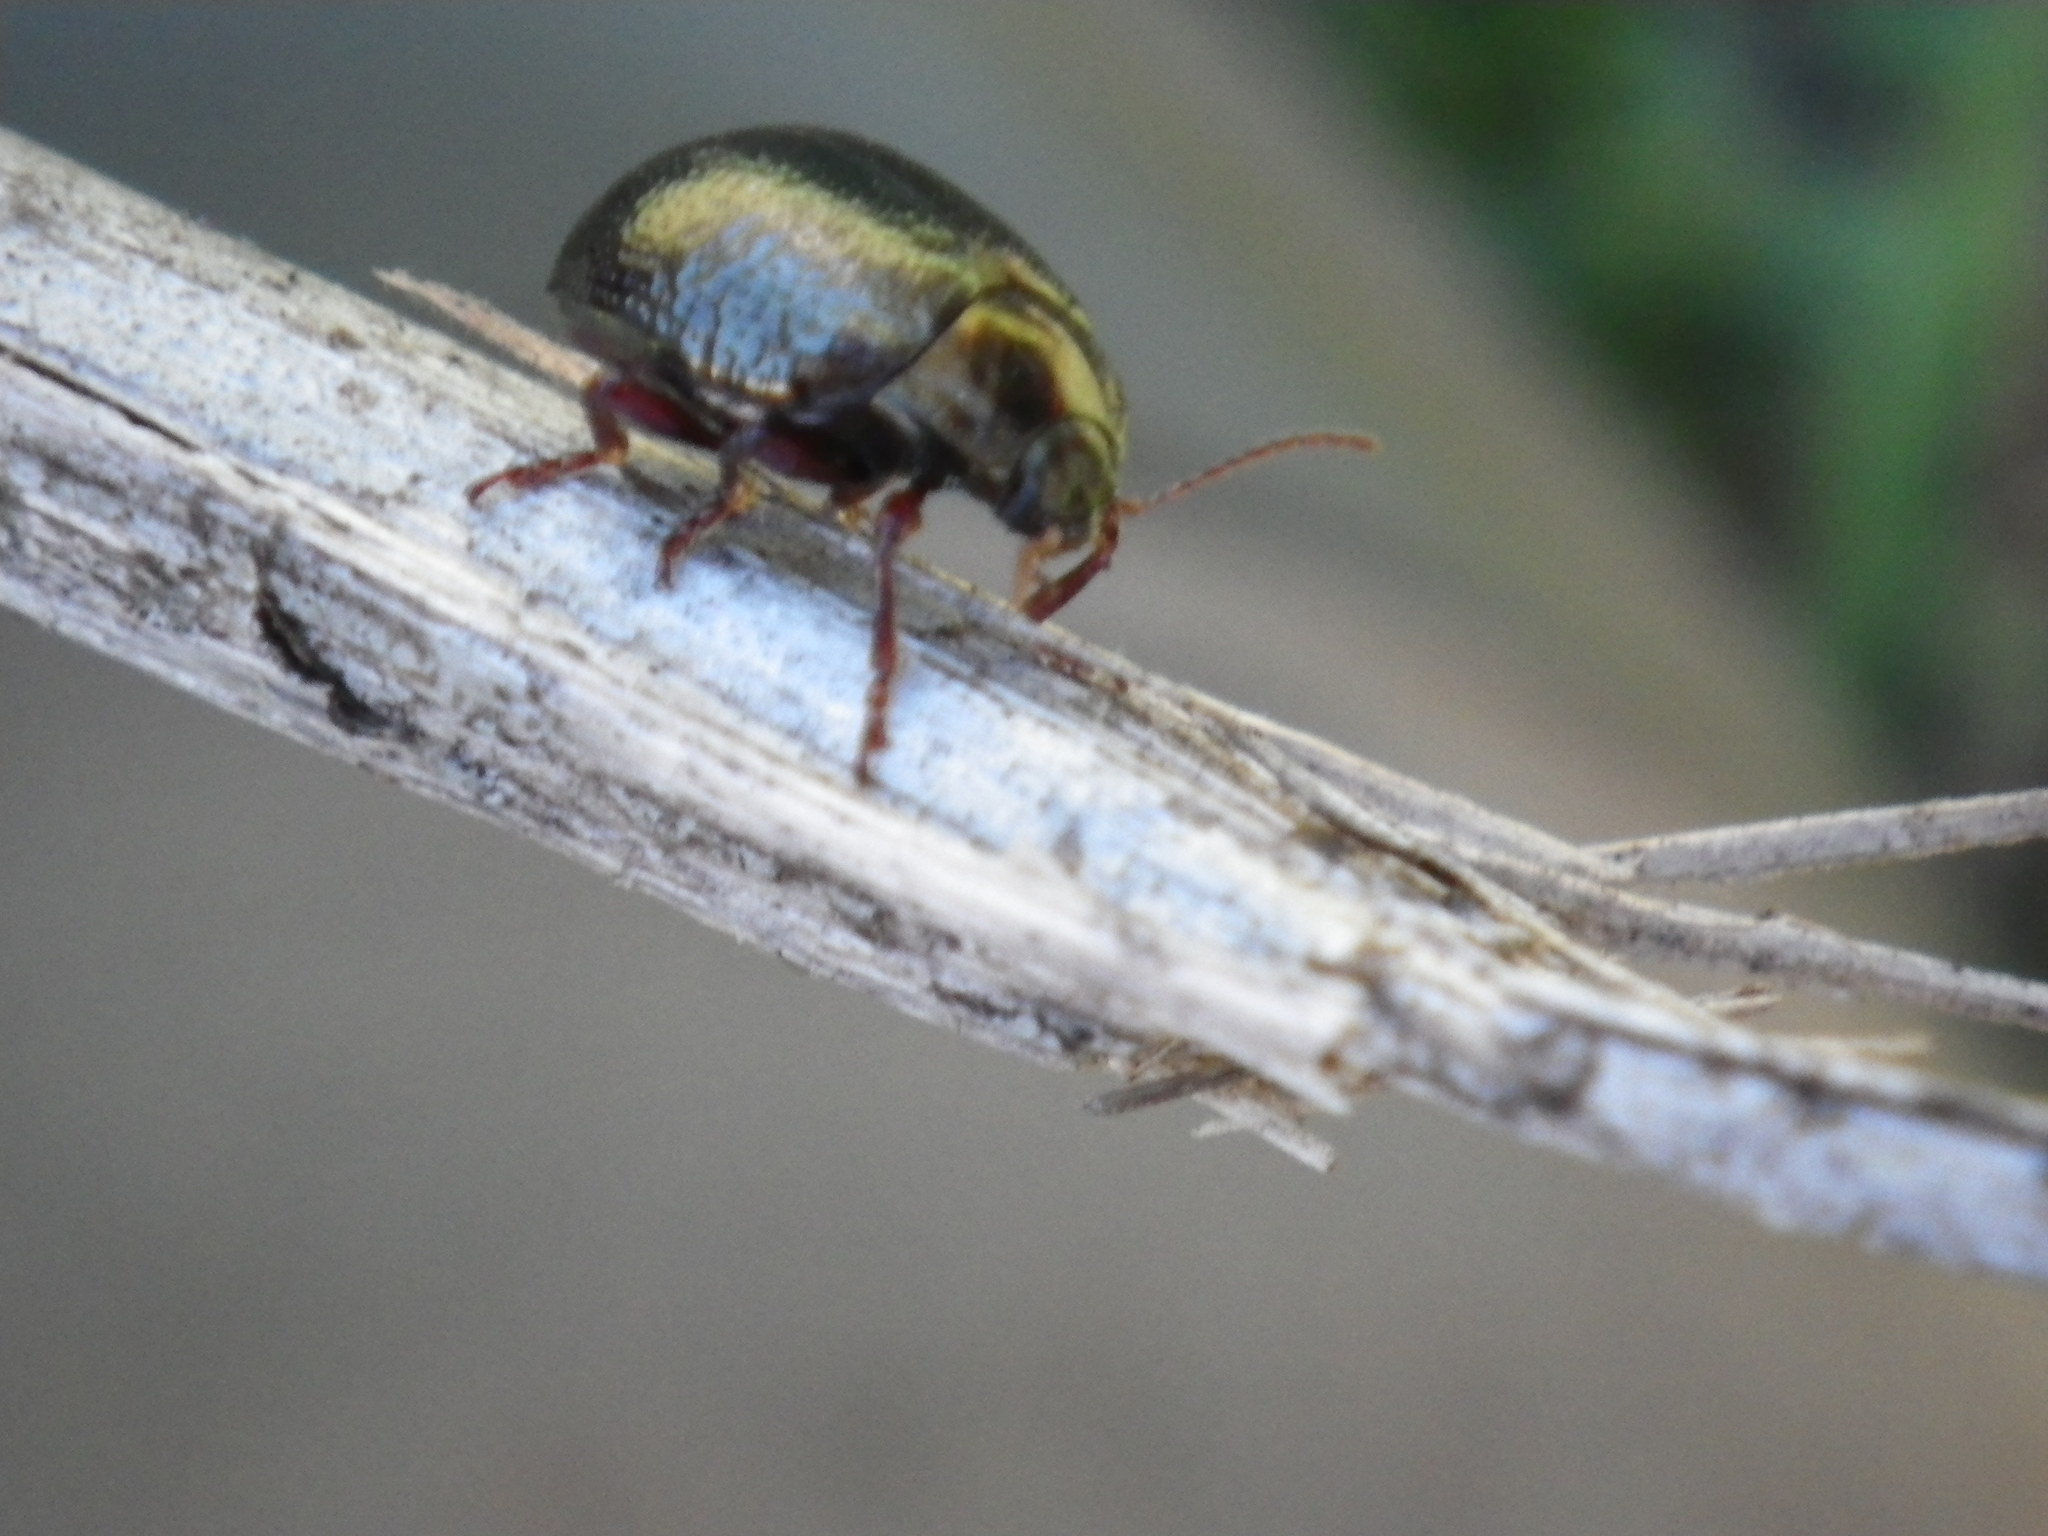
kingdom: Animalia
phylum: Arthropoda
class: Insecta
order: Coleoptera
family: Chrysomelidae
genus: Chrysolina
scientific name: Chrysolina bankii
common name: Leaf beetle
